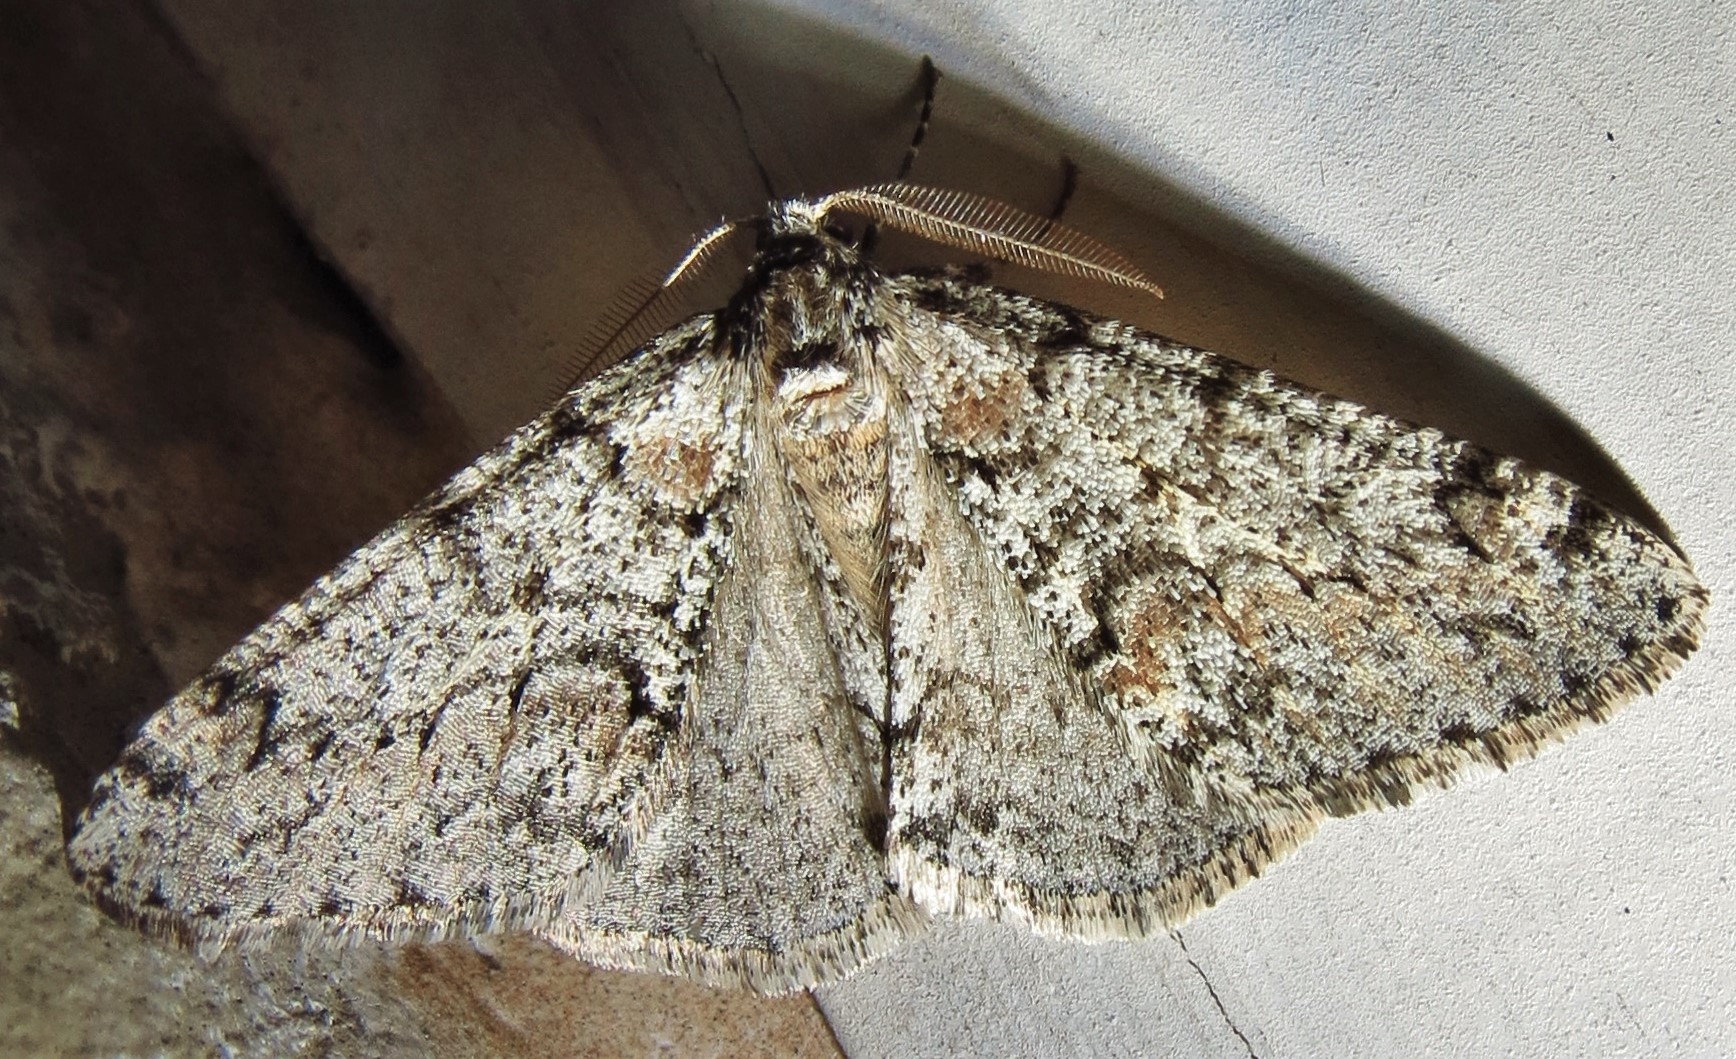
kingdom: Animalia
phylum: Arthropoda
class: Insecta
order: Lepidoptera
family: Geometridae
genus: Phigalia
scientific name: Phigalia denticulata
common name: Toothed phigalia
